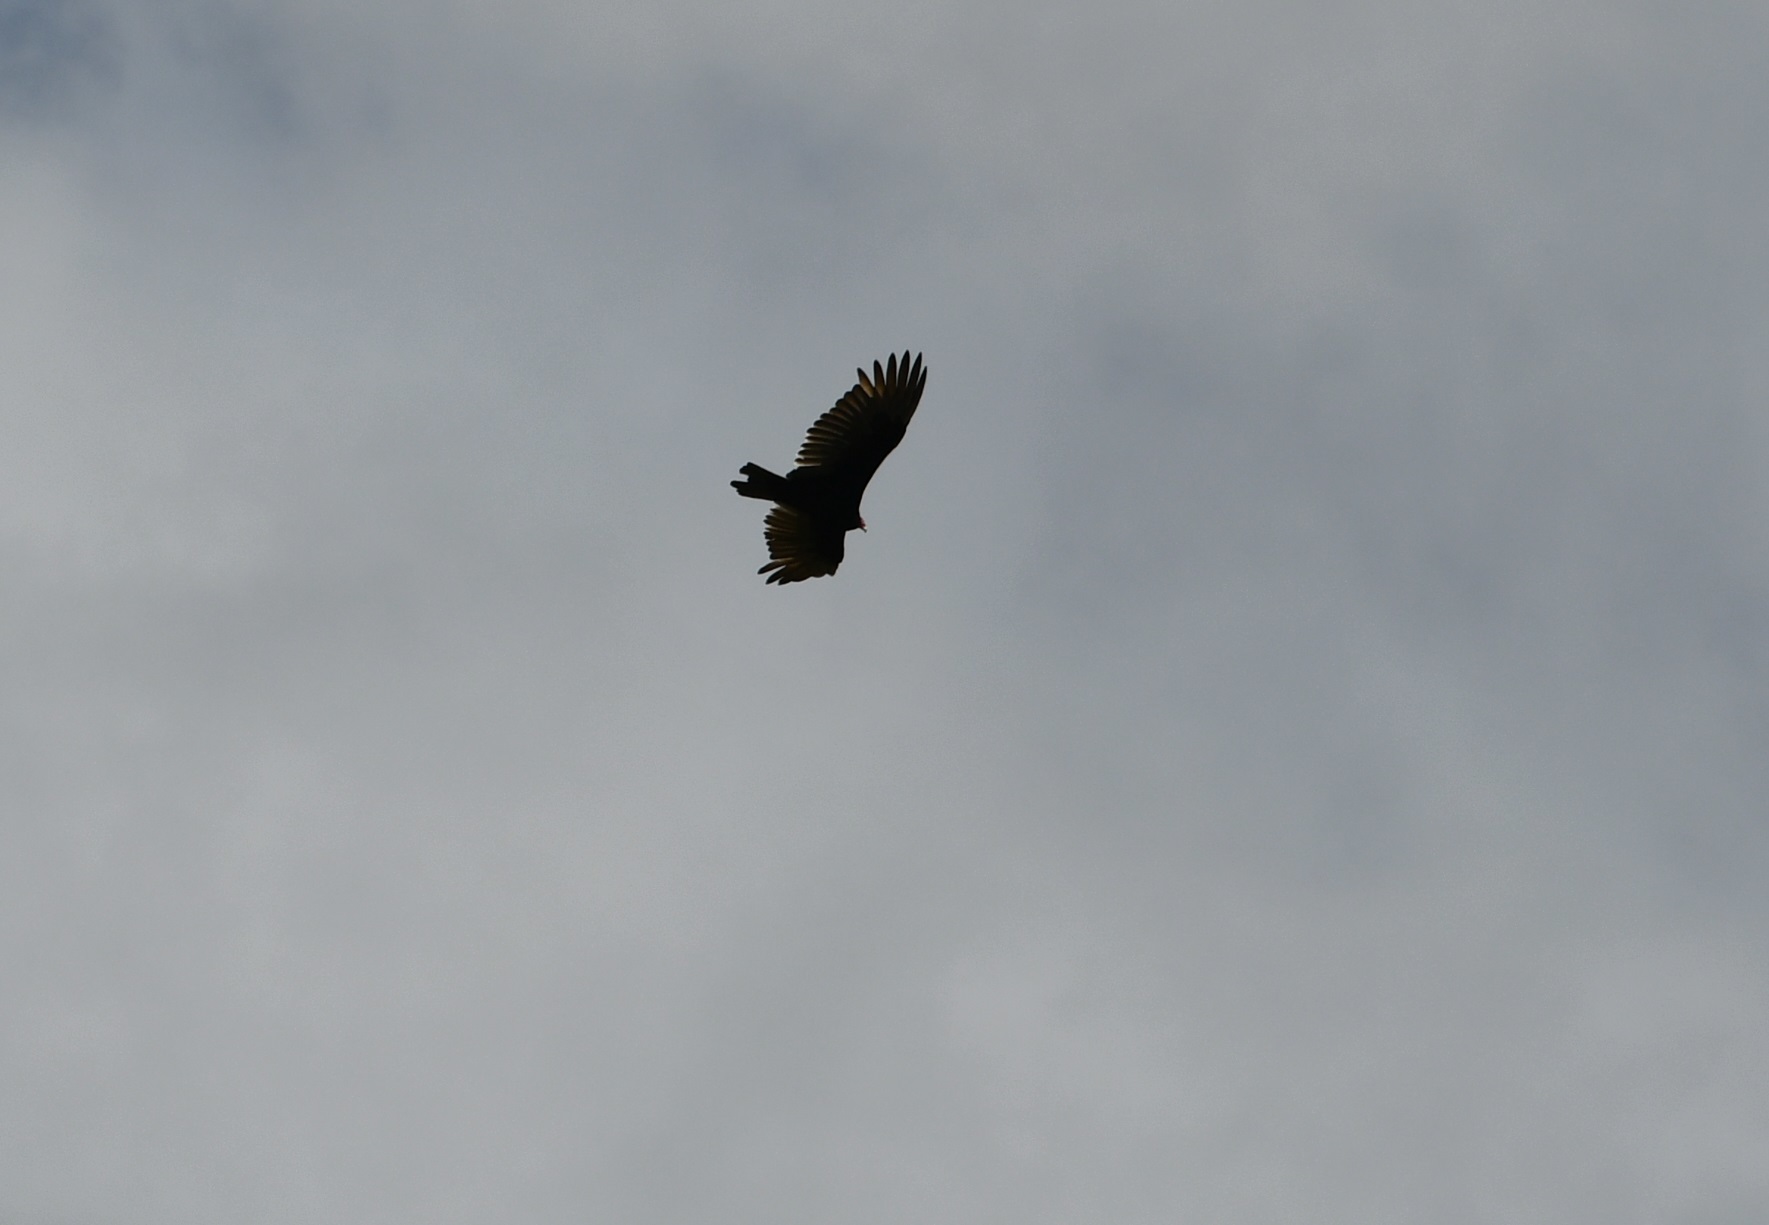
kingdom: Animalia
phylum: Chordata
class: Aves
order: Accipitriformes
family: Cathartidae
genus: Cathartes
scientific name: Cathartes aura
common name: Turkey vulture
